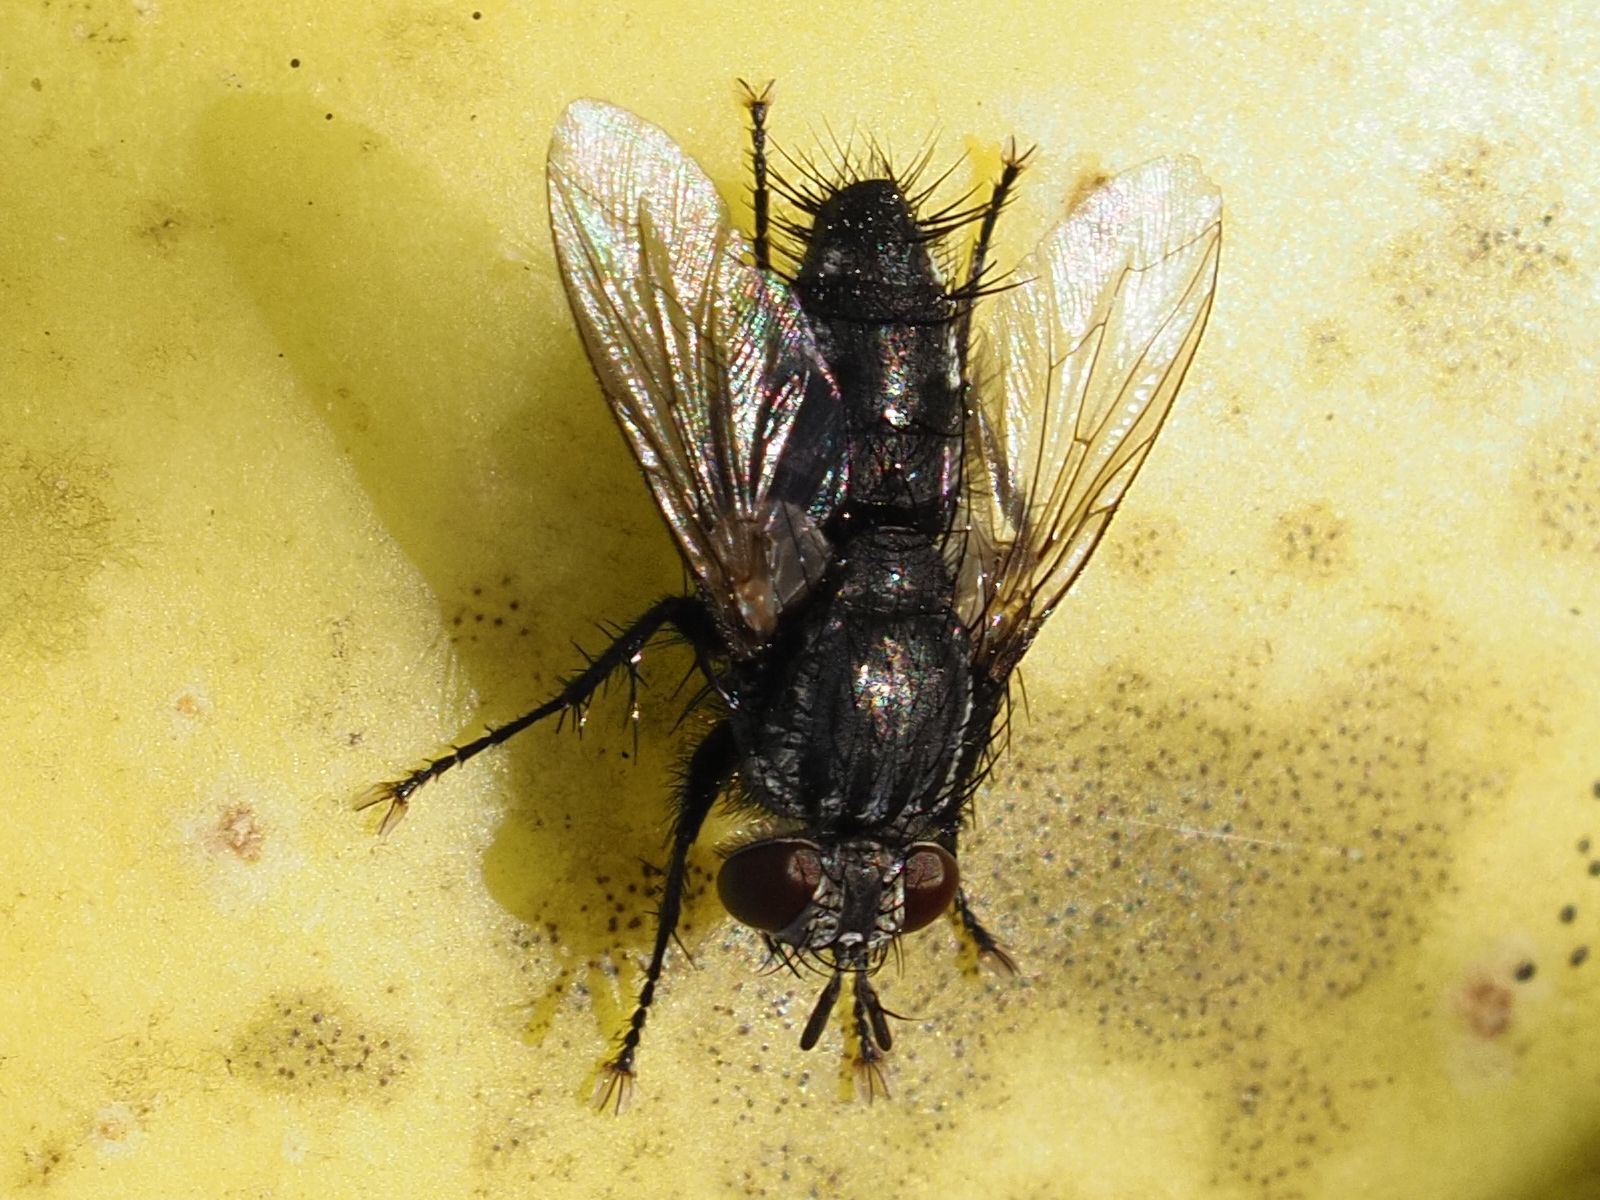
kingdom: Animalia
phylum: Arthropoda
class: Insecta
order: Diptera
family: Tachinidae
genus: Voria
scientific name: Voria ruralis
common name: Parasitic fly
